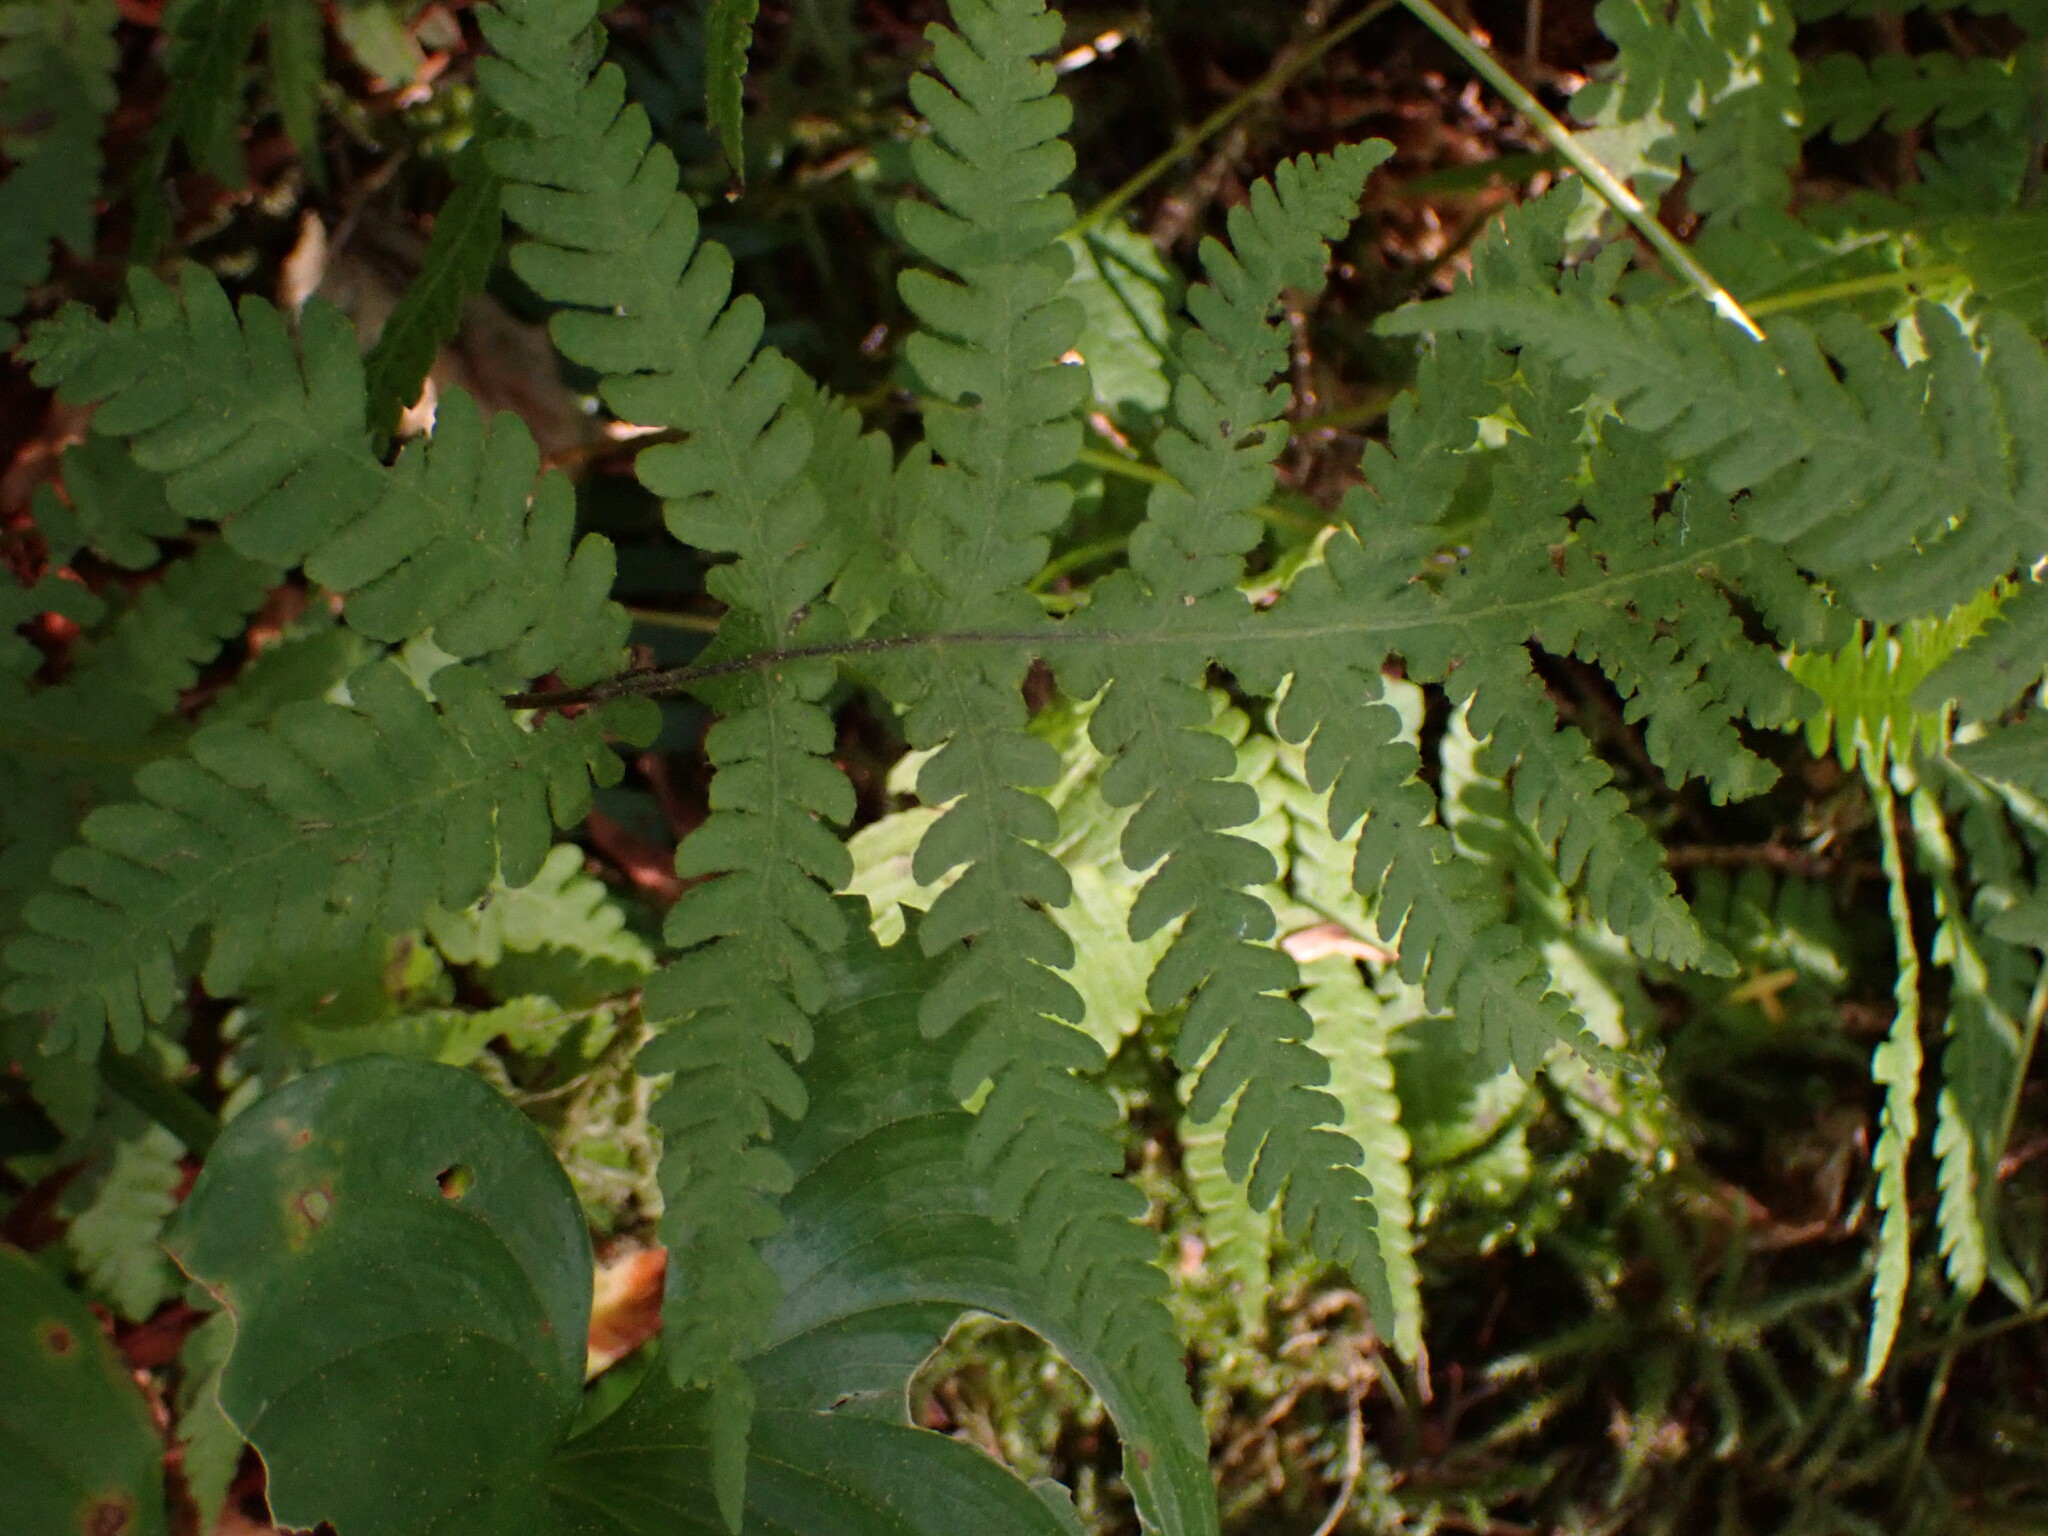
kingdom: Plantae
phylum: Tracheophyta
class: Polypodiopsida
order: Polypodiales
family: Thelypteridaceae
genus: Phegopteris
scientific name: Phegopteris connectilis
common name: Beech fern
